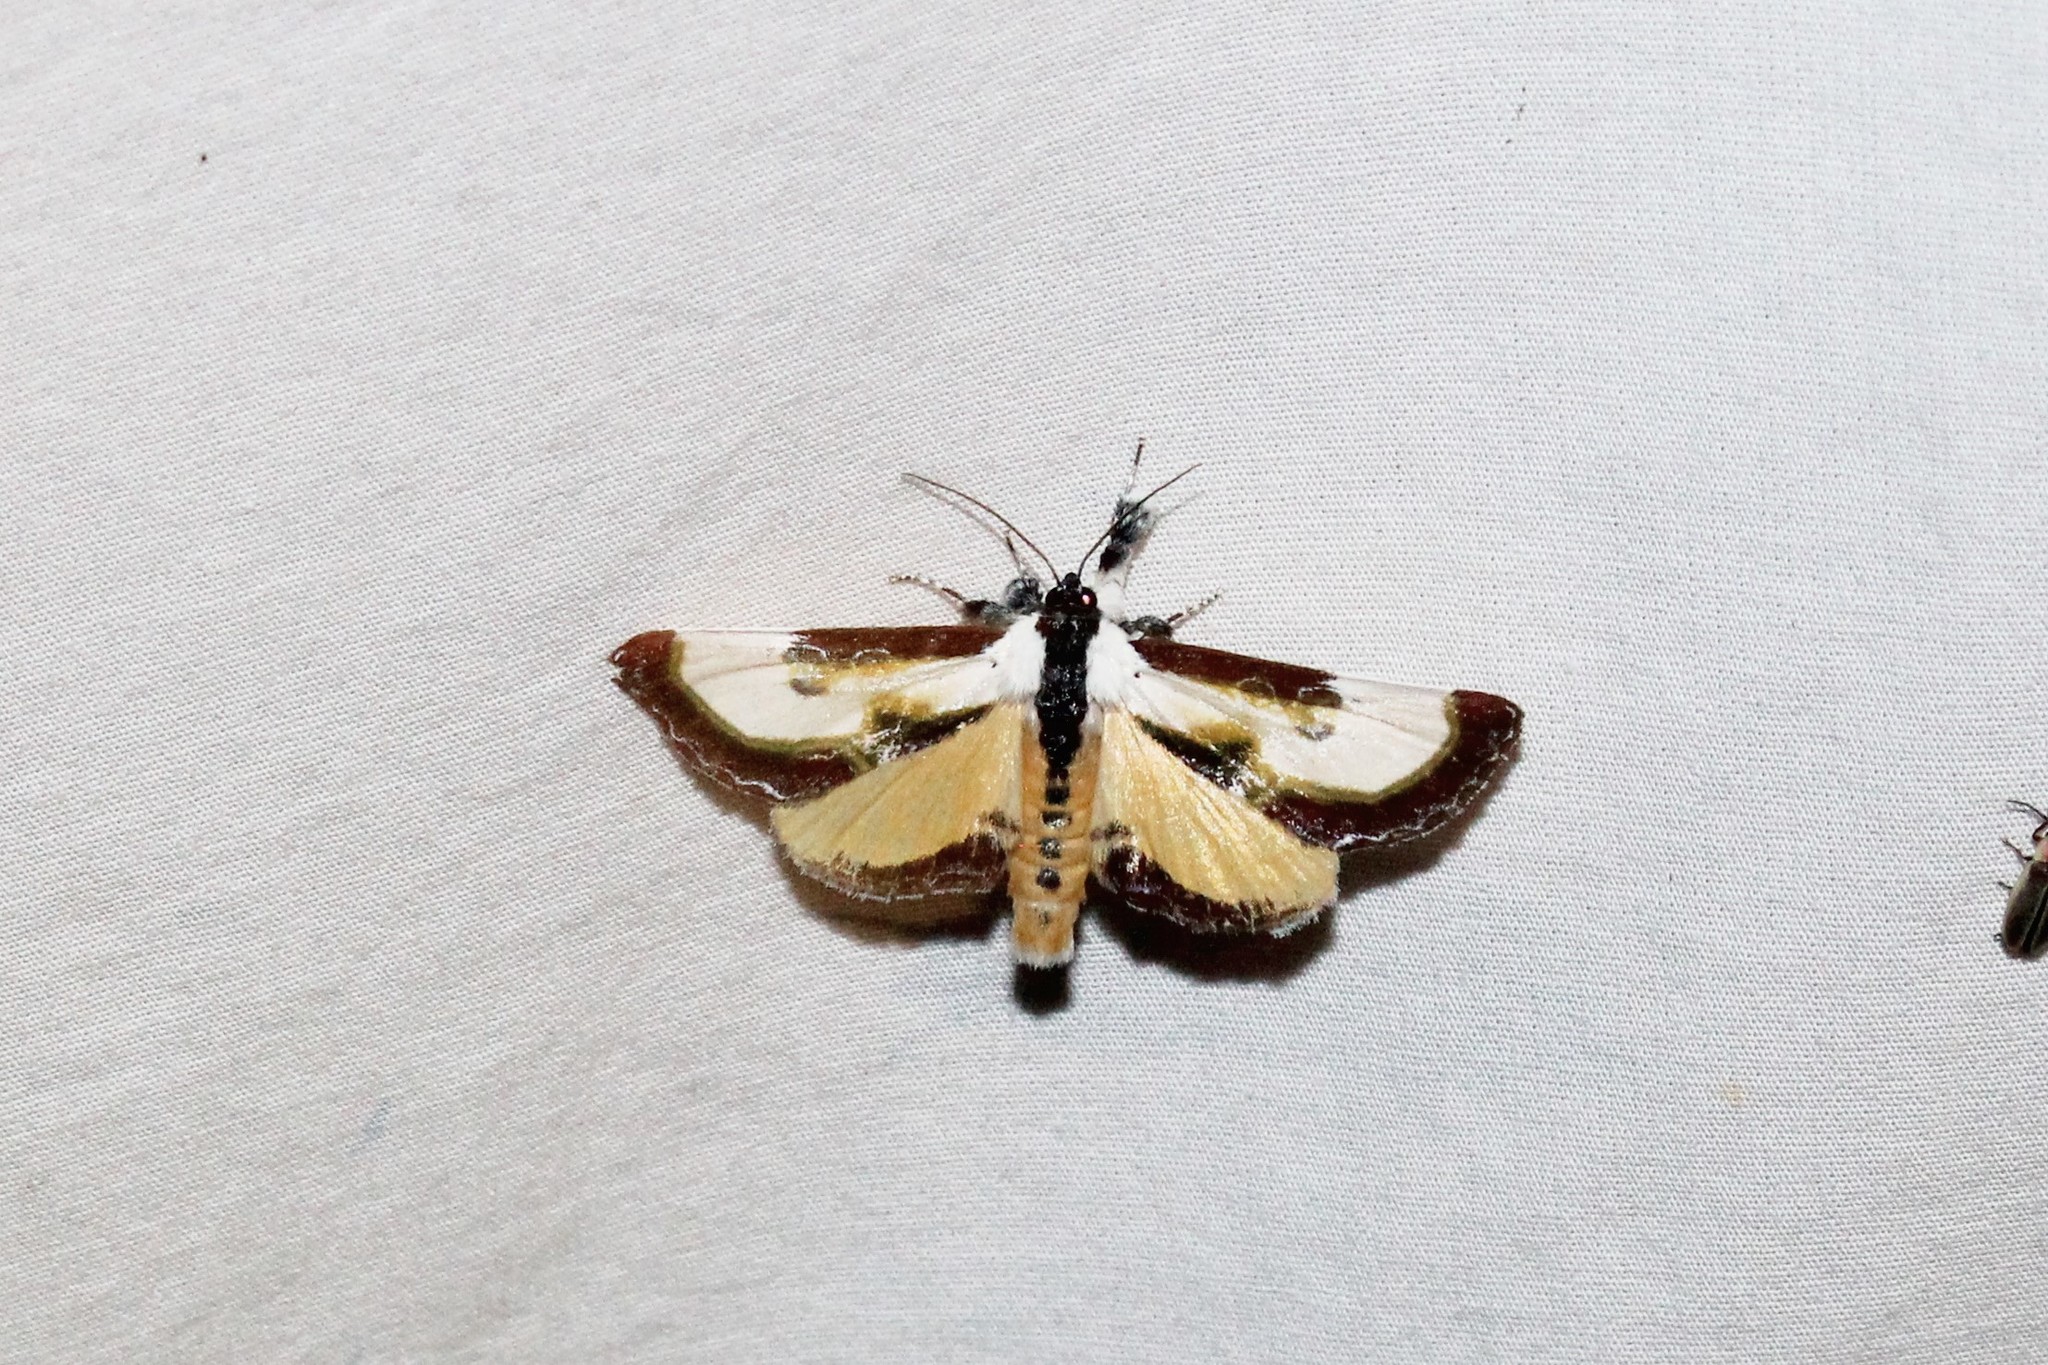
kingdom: Animalia
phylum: Arthropoda
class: Insecta
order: Lepidoptera
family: Noctuidae
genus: Eudryas
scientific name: Eudryas grata
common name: Beautiful wood-nymph
